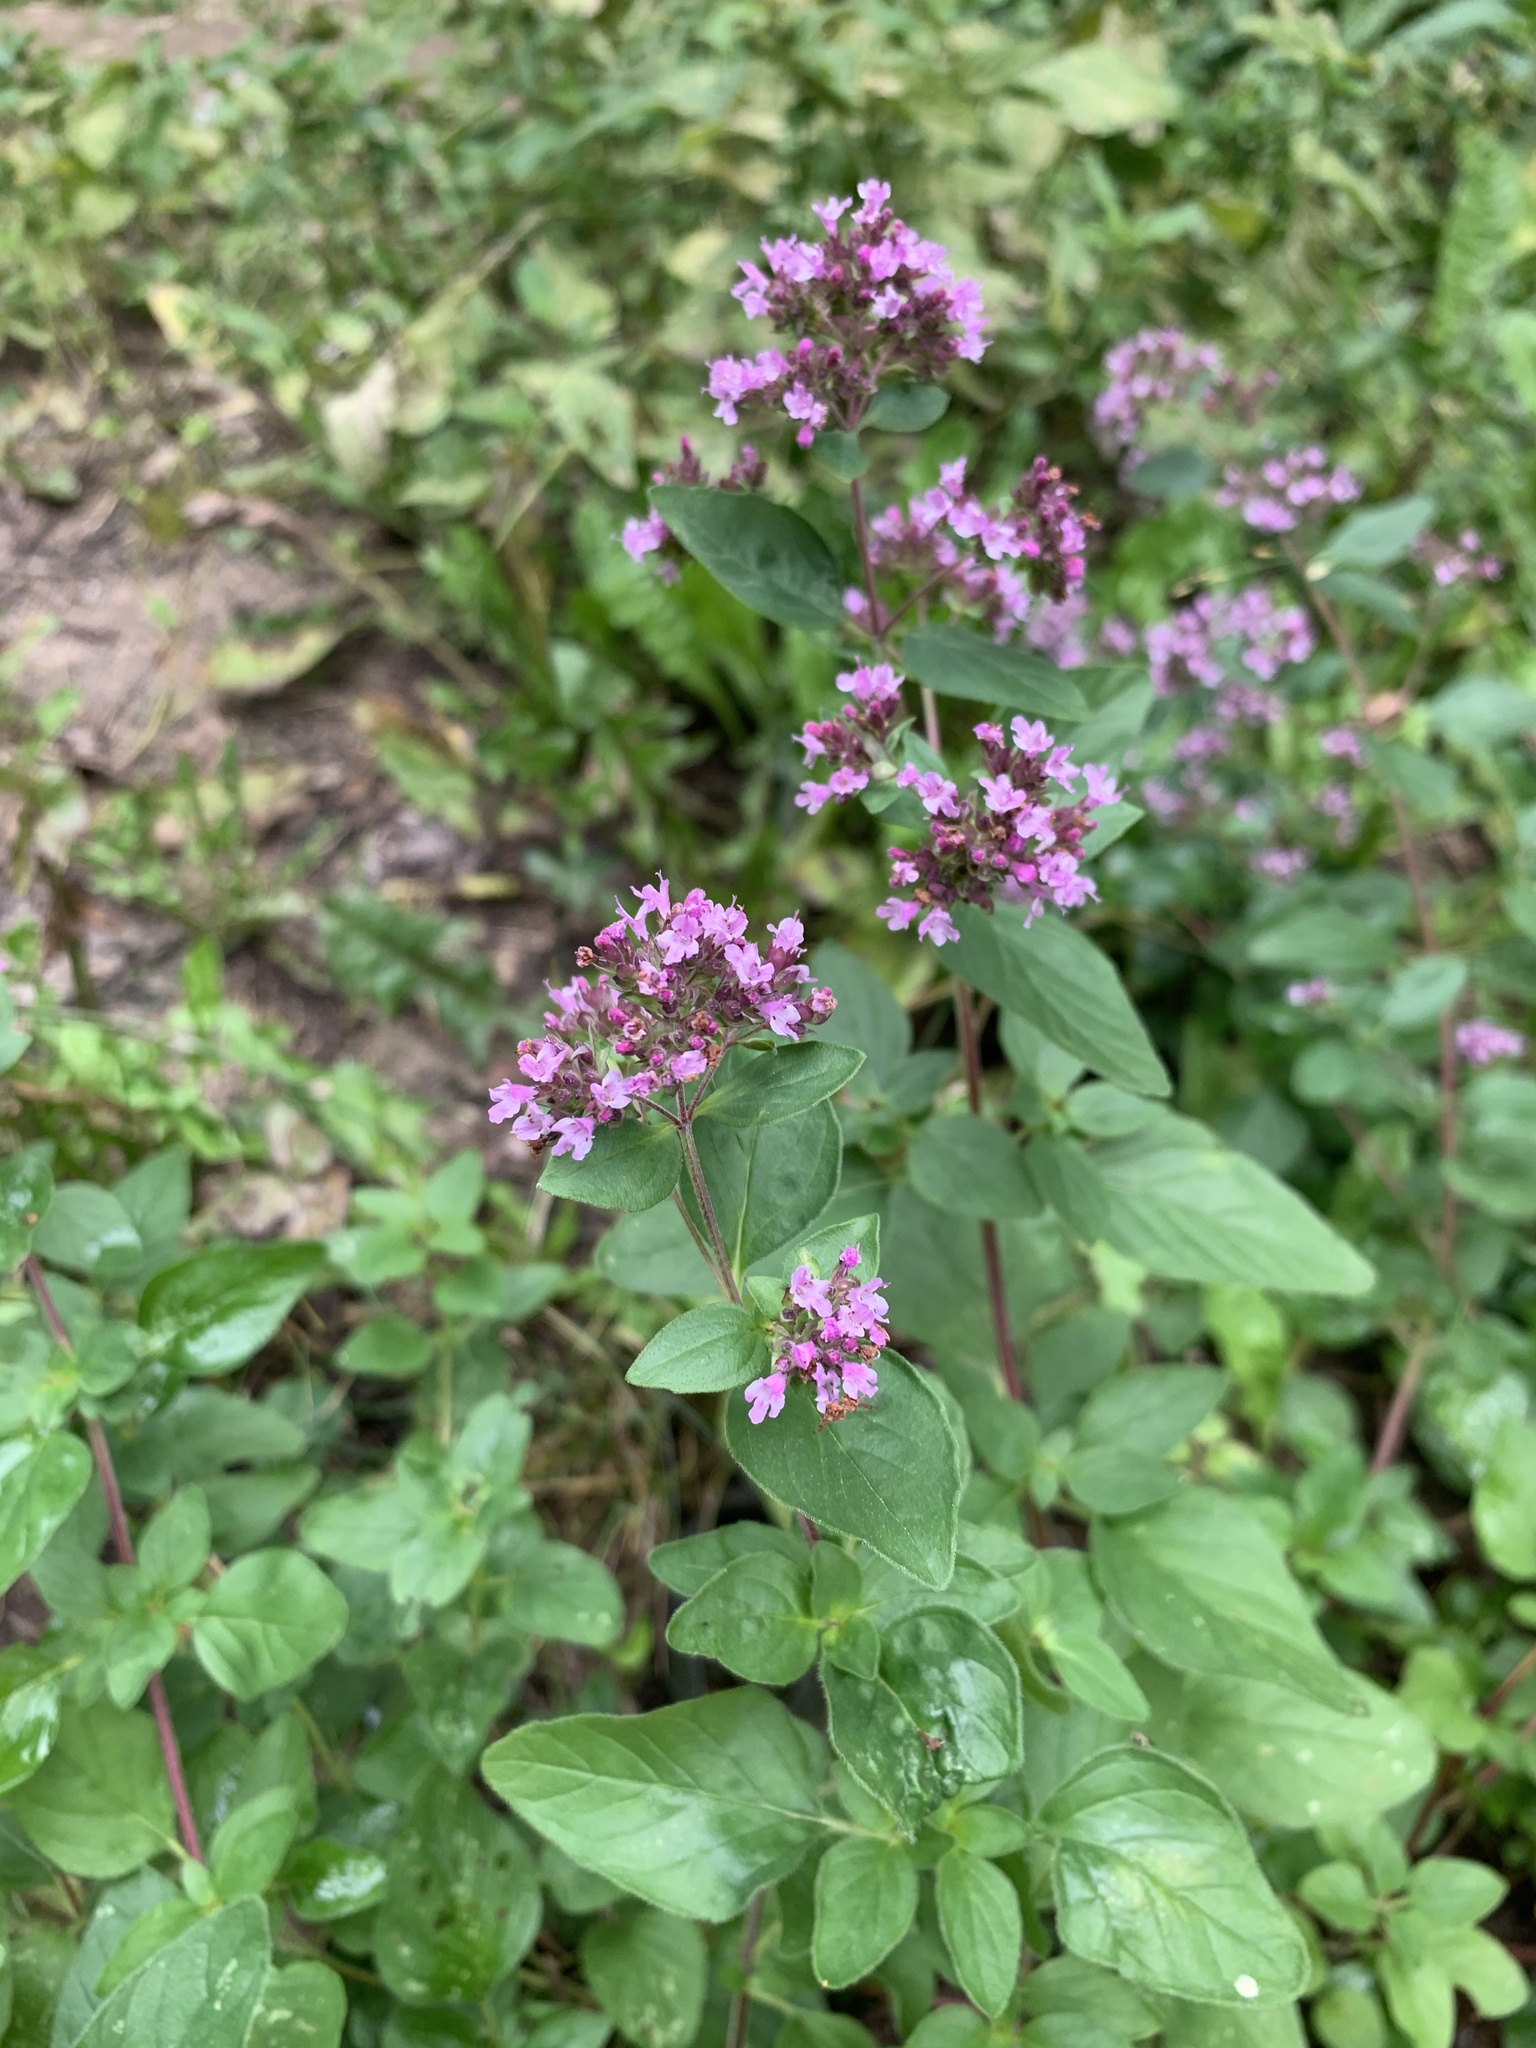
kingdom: Plantae
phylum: Tracheophyta
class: Magnoliopsida
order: Lamiales
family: Lamiaceae
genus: Origanum
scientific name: Origanum vulgare
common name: Wild marjoram
